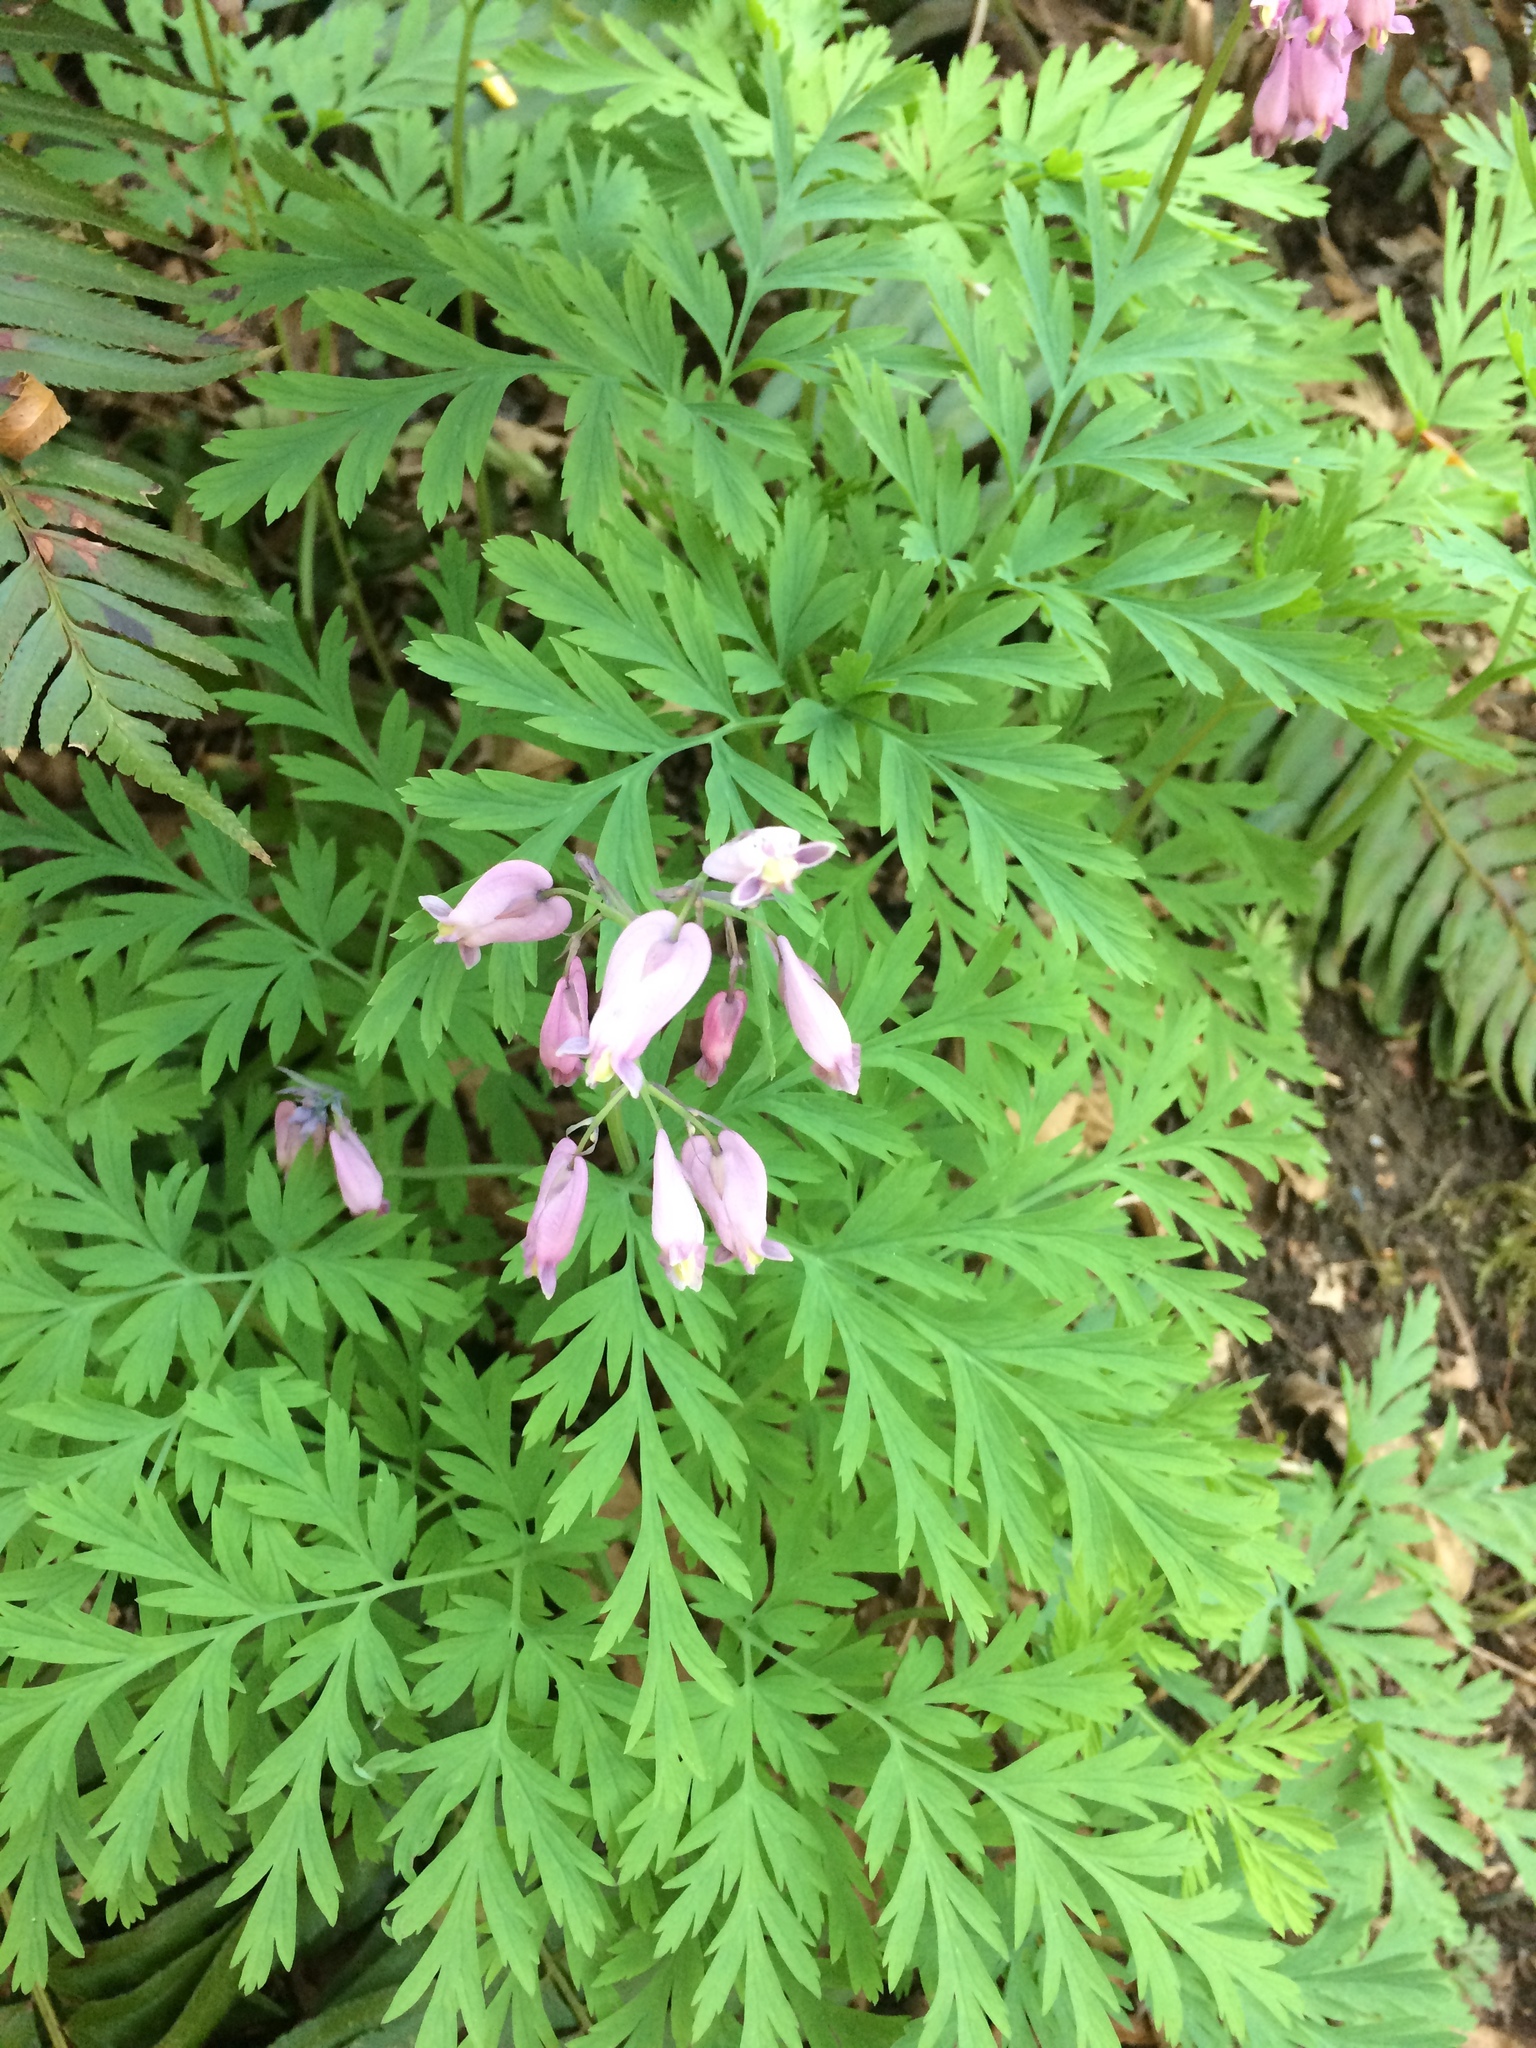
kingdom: Plantae
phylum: Tracheophyta
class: Magnoliopsida
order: Ranunculales
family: Papaveraceae
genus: Dicentra
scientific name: Dicentra formosa
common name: Bleeding-heart
